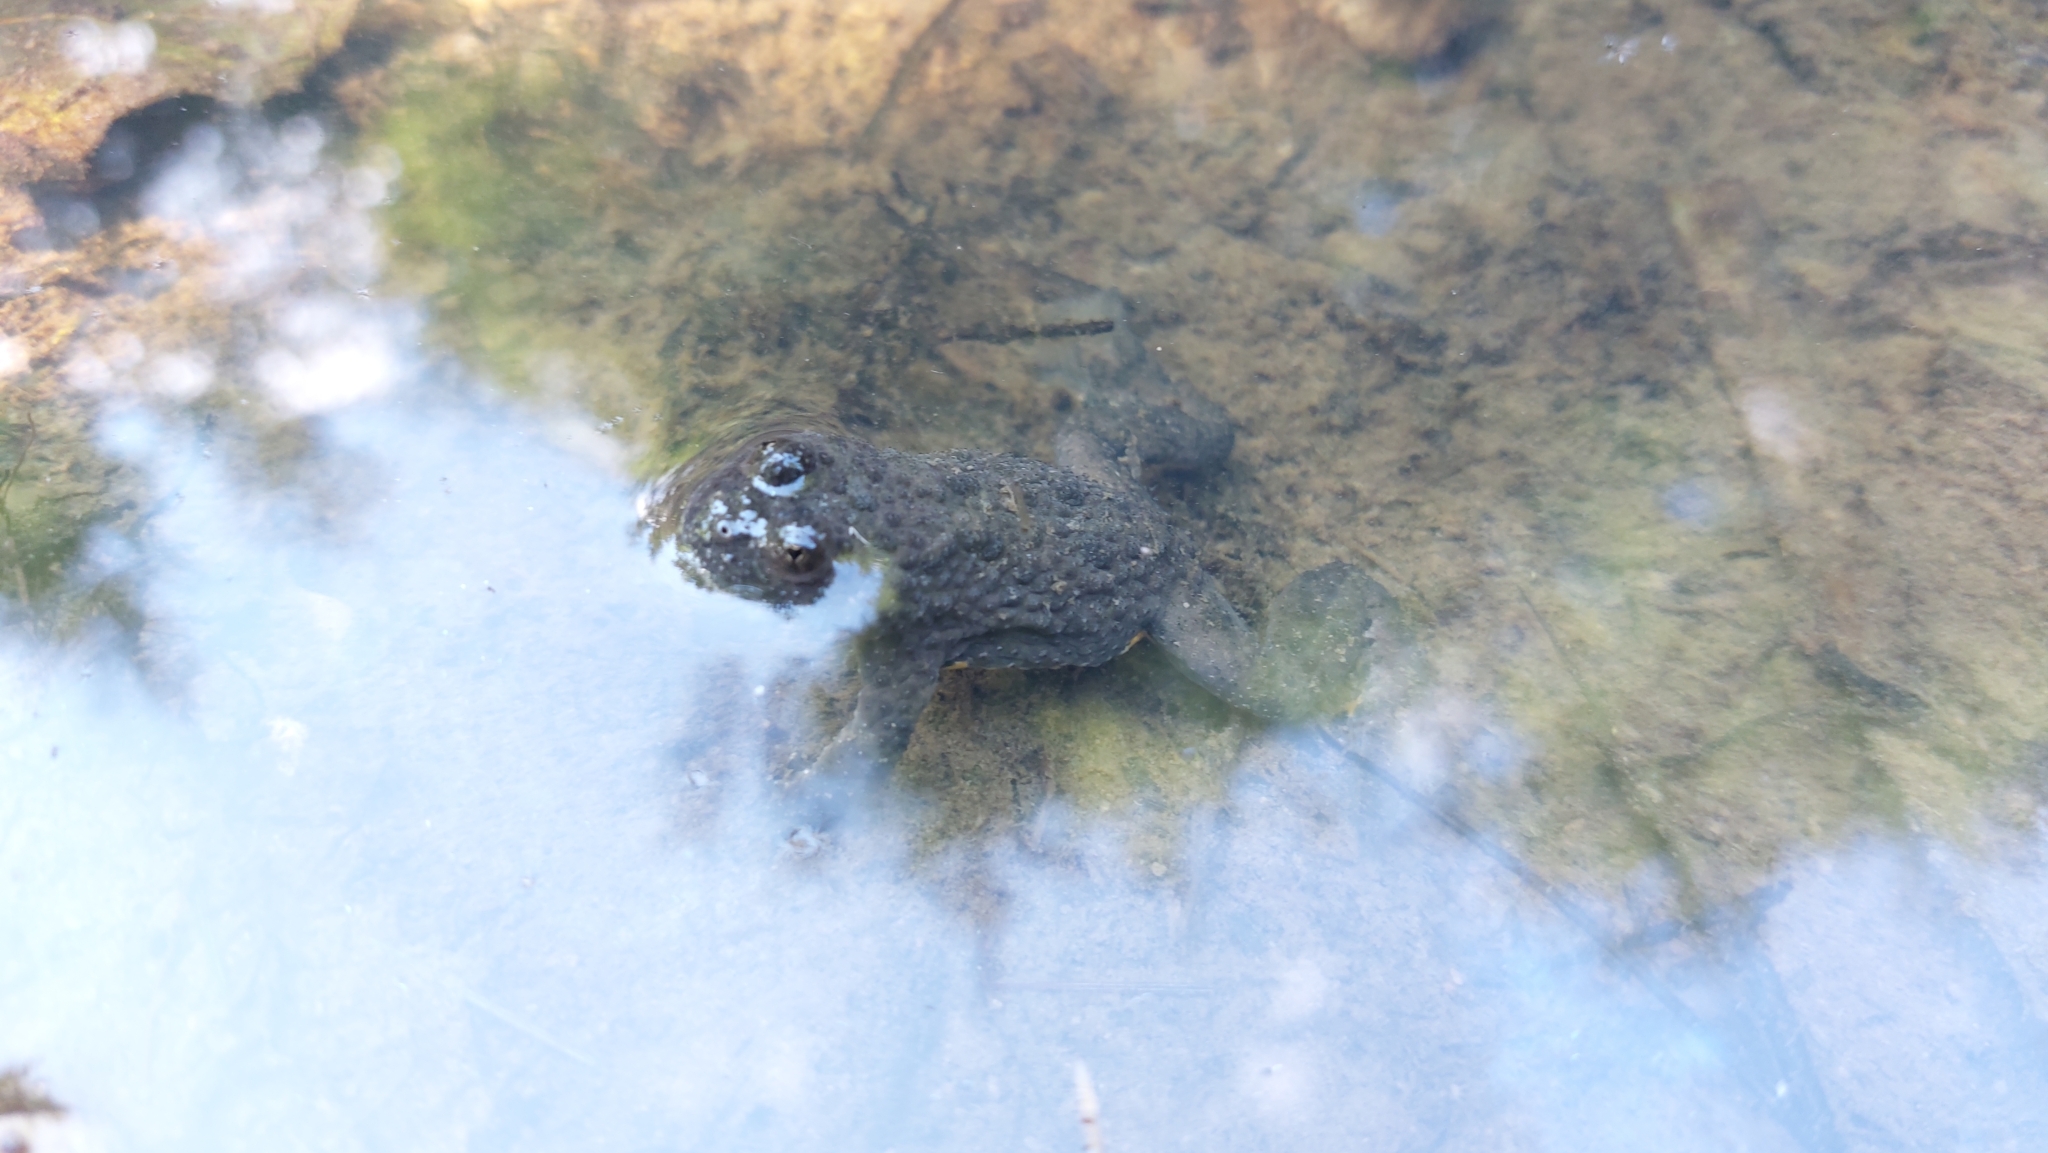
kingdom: Animalia
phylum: Chordata
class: Amphibia
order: Anura
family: Bombinatoridae
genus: Bombina
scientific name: Bombina variegata
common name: Yellow-bellied toad
